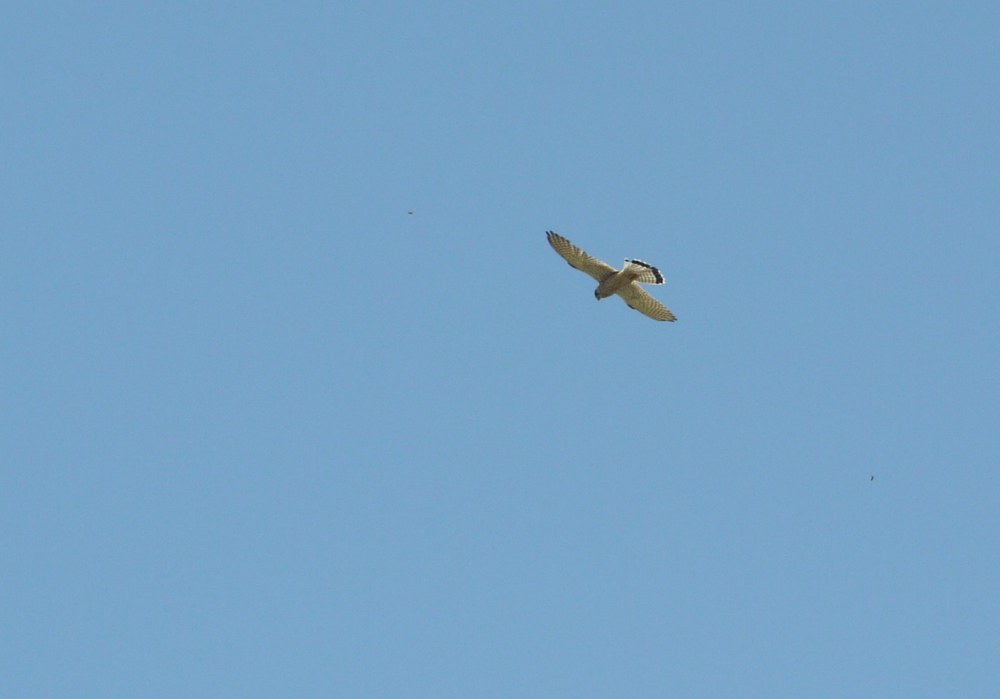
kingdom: Animalia
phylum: Chordata
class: Aves
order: Falconiformes
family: Falconidae
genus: Falco
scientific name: Falco tinnunculus
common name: Common kestrel
